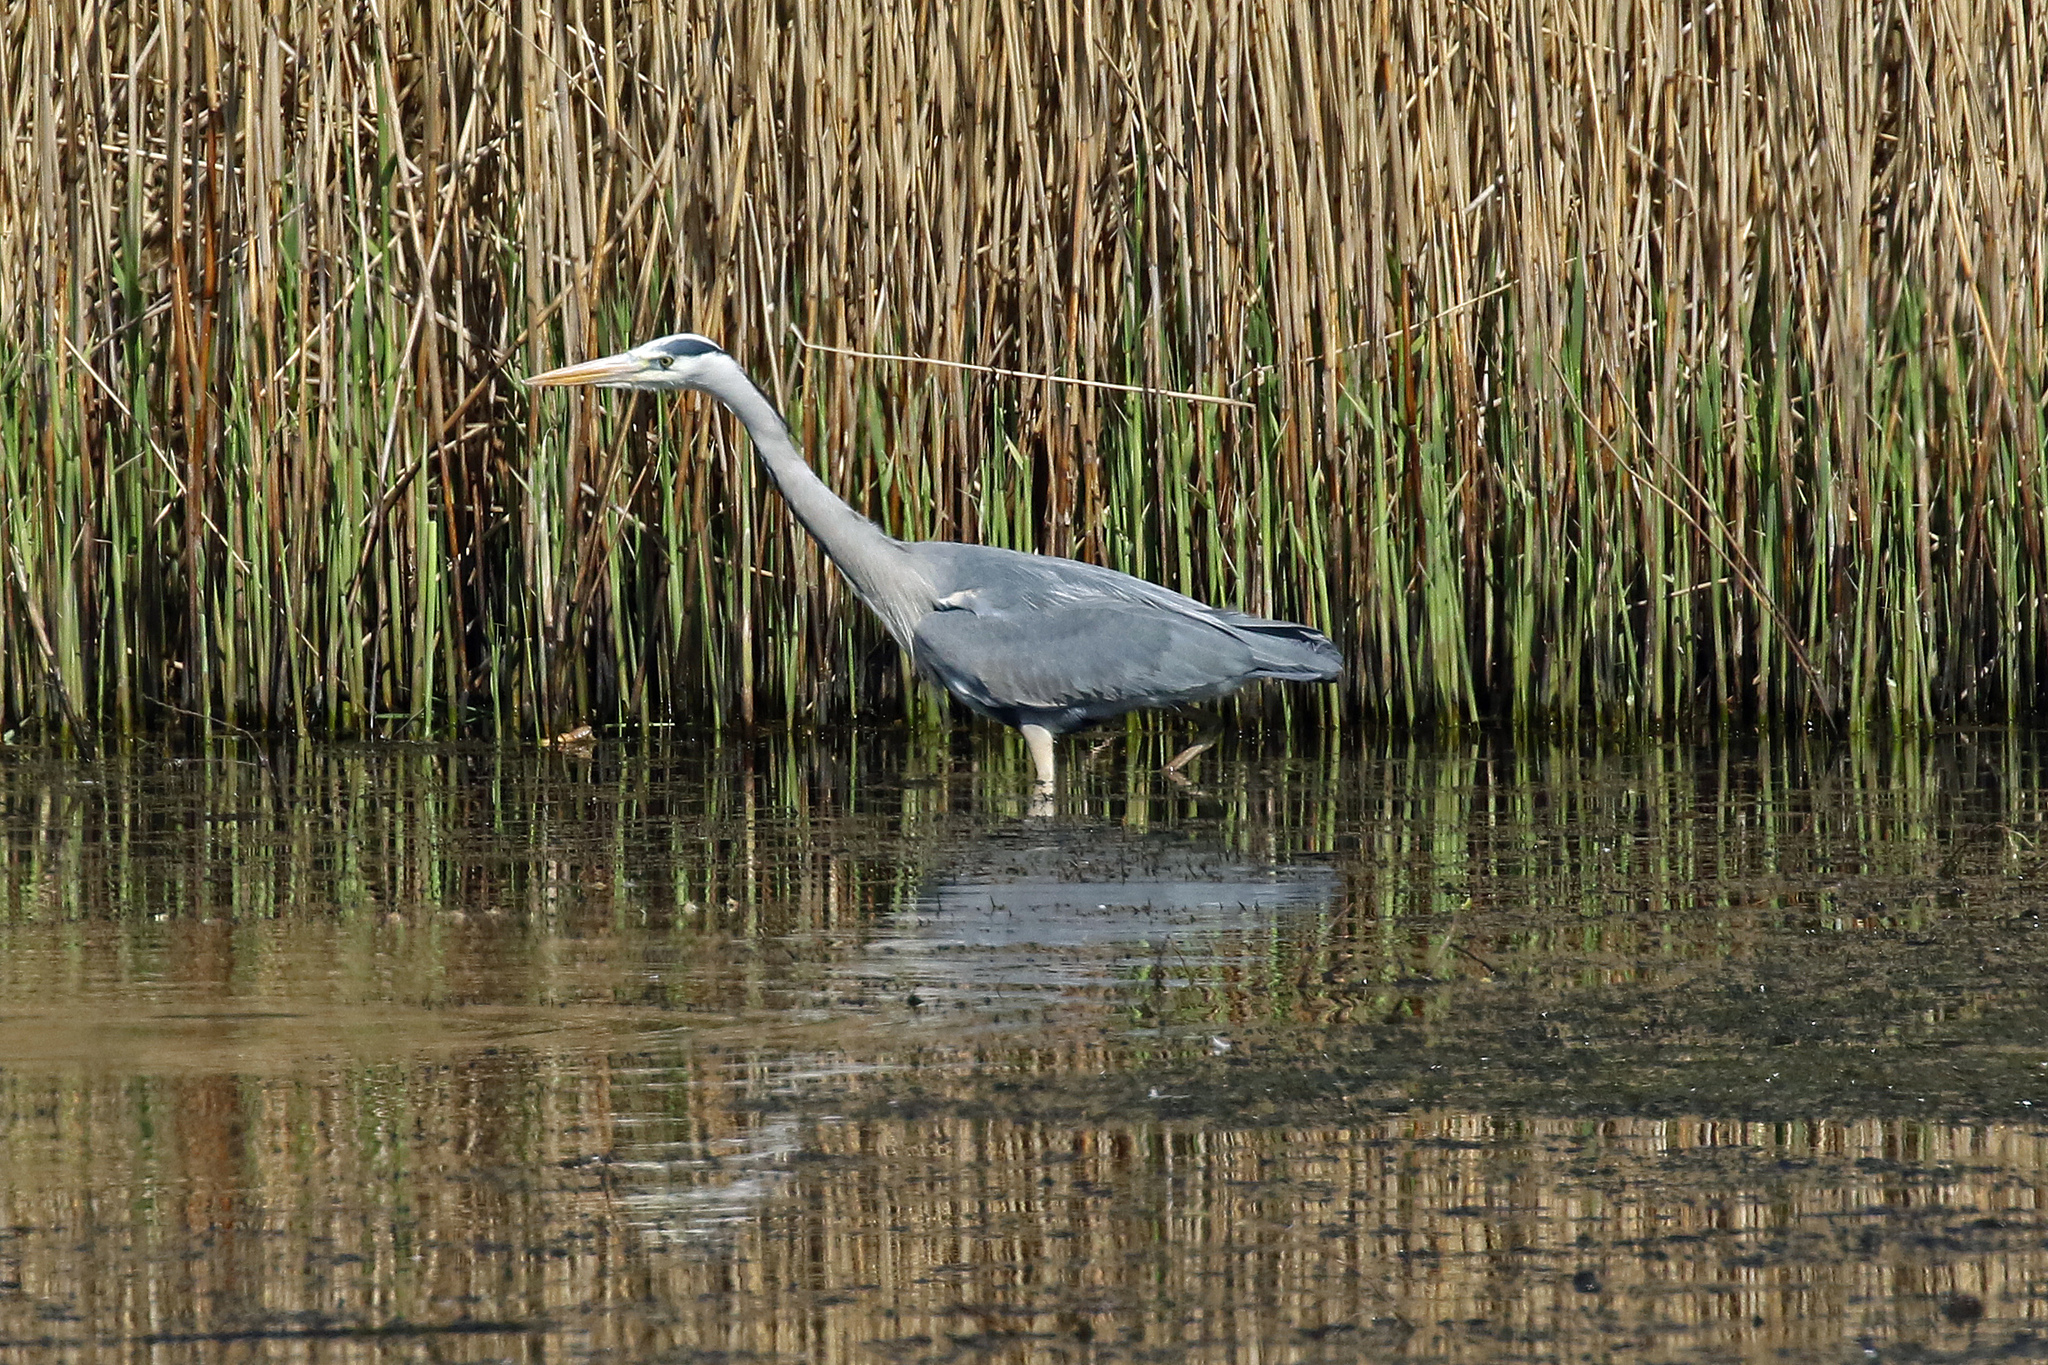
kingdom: Animalia
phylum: Chordata
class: Aves
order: Pelecaniformes
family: Ardeidae
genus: Ardea
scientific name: Ardea cinerea
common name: Grey heron
